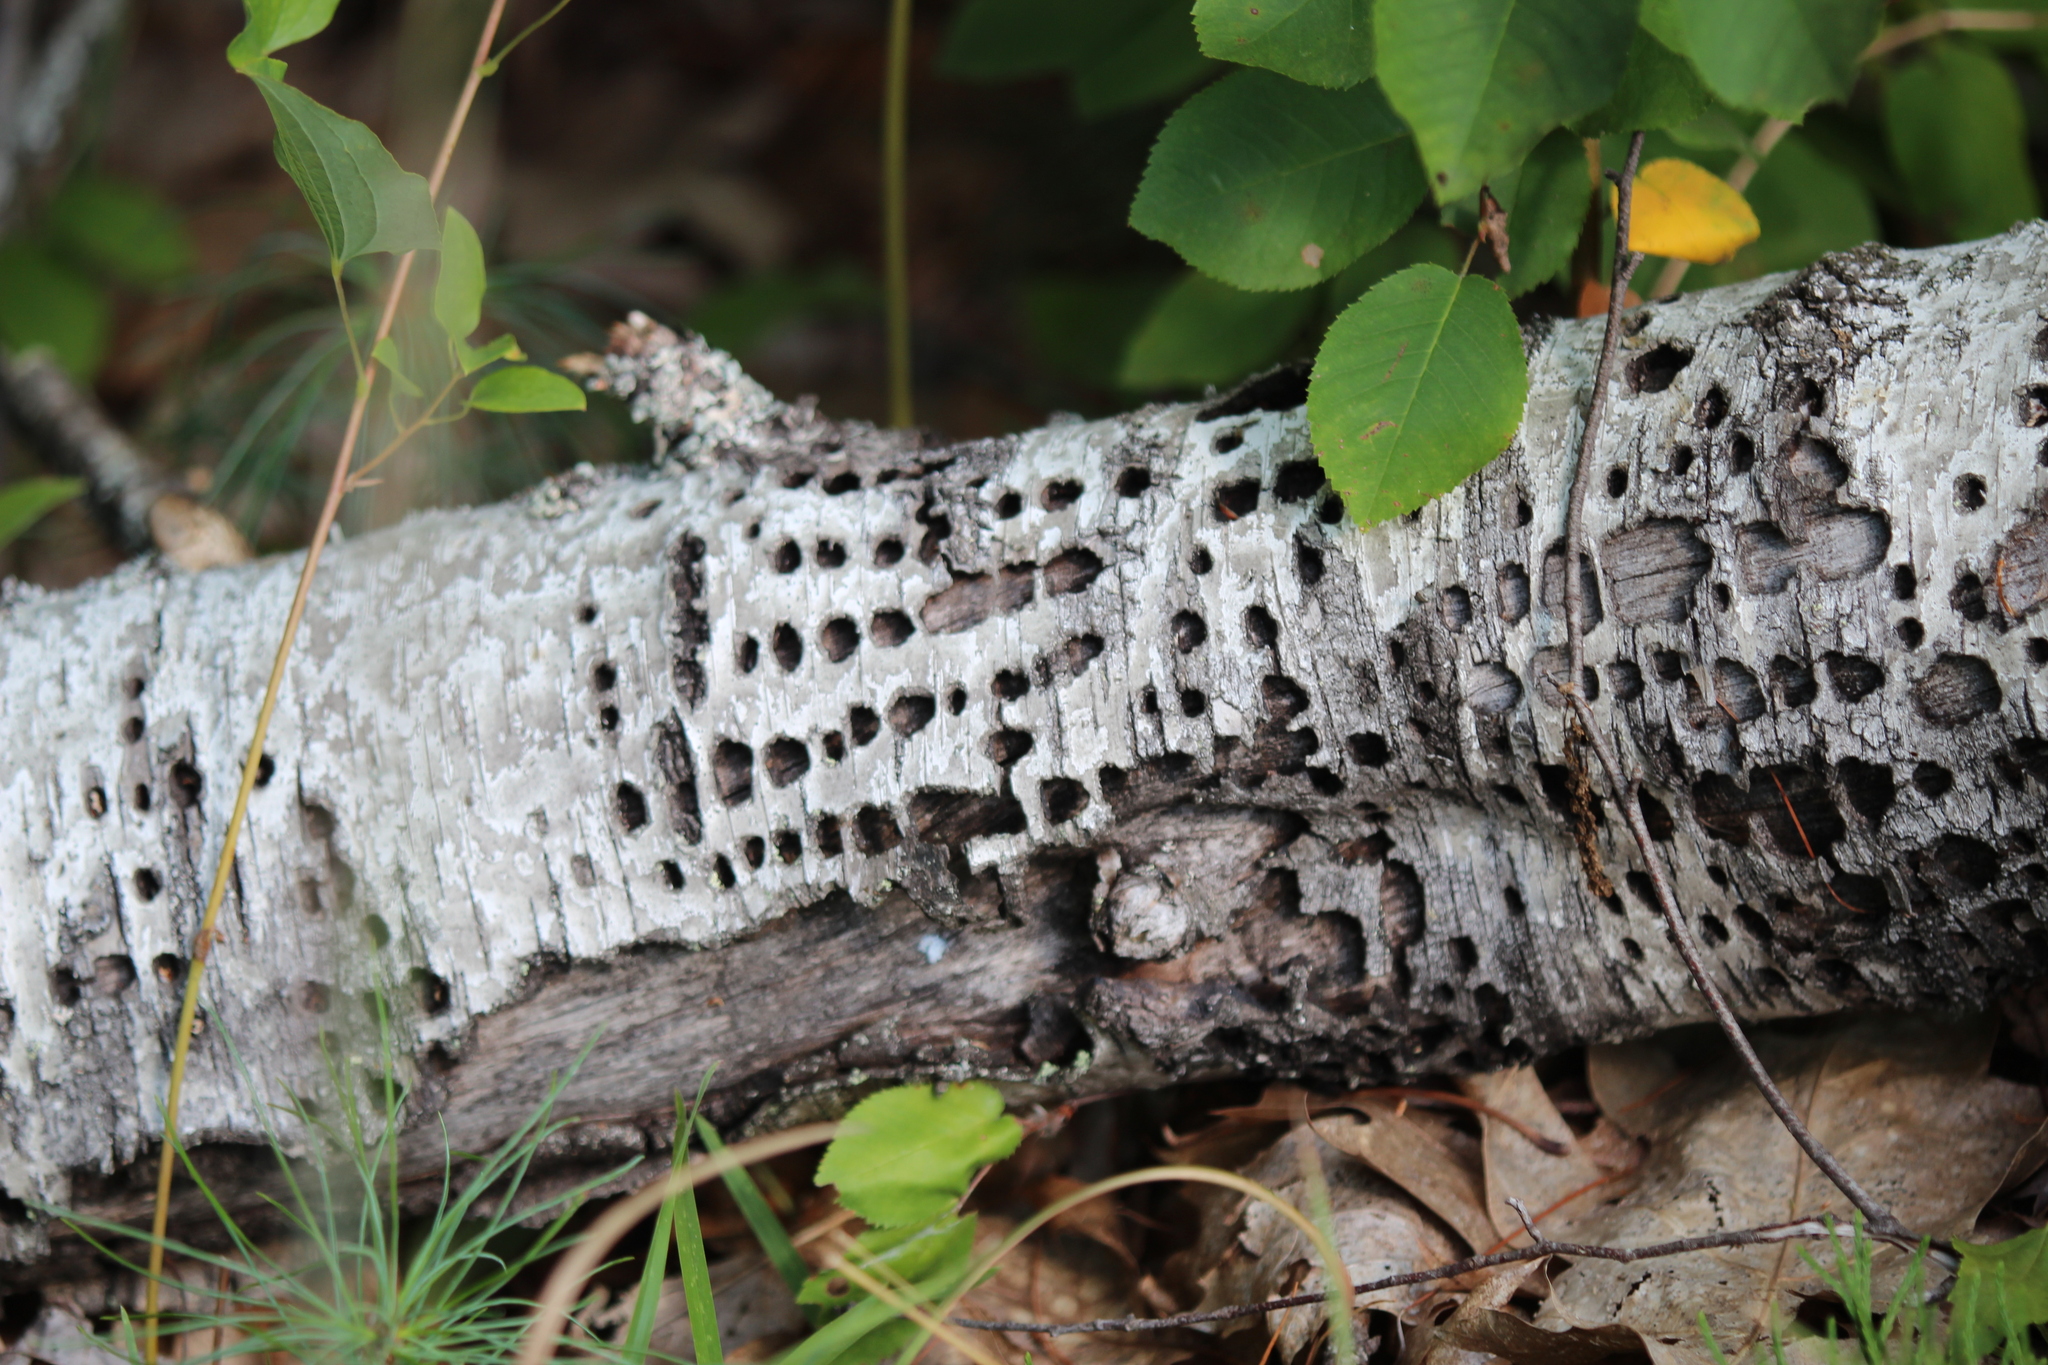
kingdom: Animalia
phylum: Chordata
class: Aves
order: Piciformes
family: Picidae
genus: Sphyrapicus
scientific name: Sphyrapicus varius
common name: Yellow-bellied sapsucker
